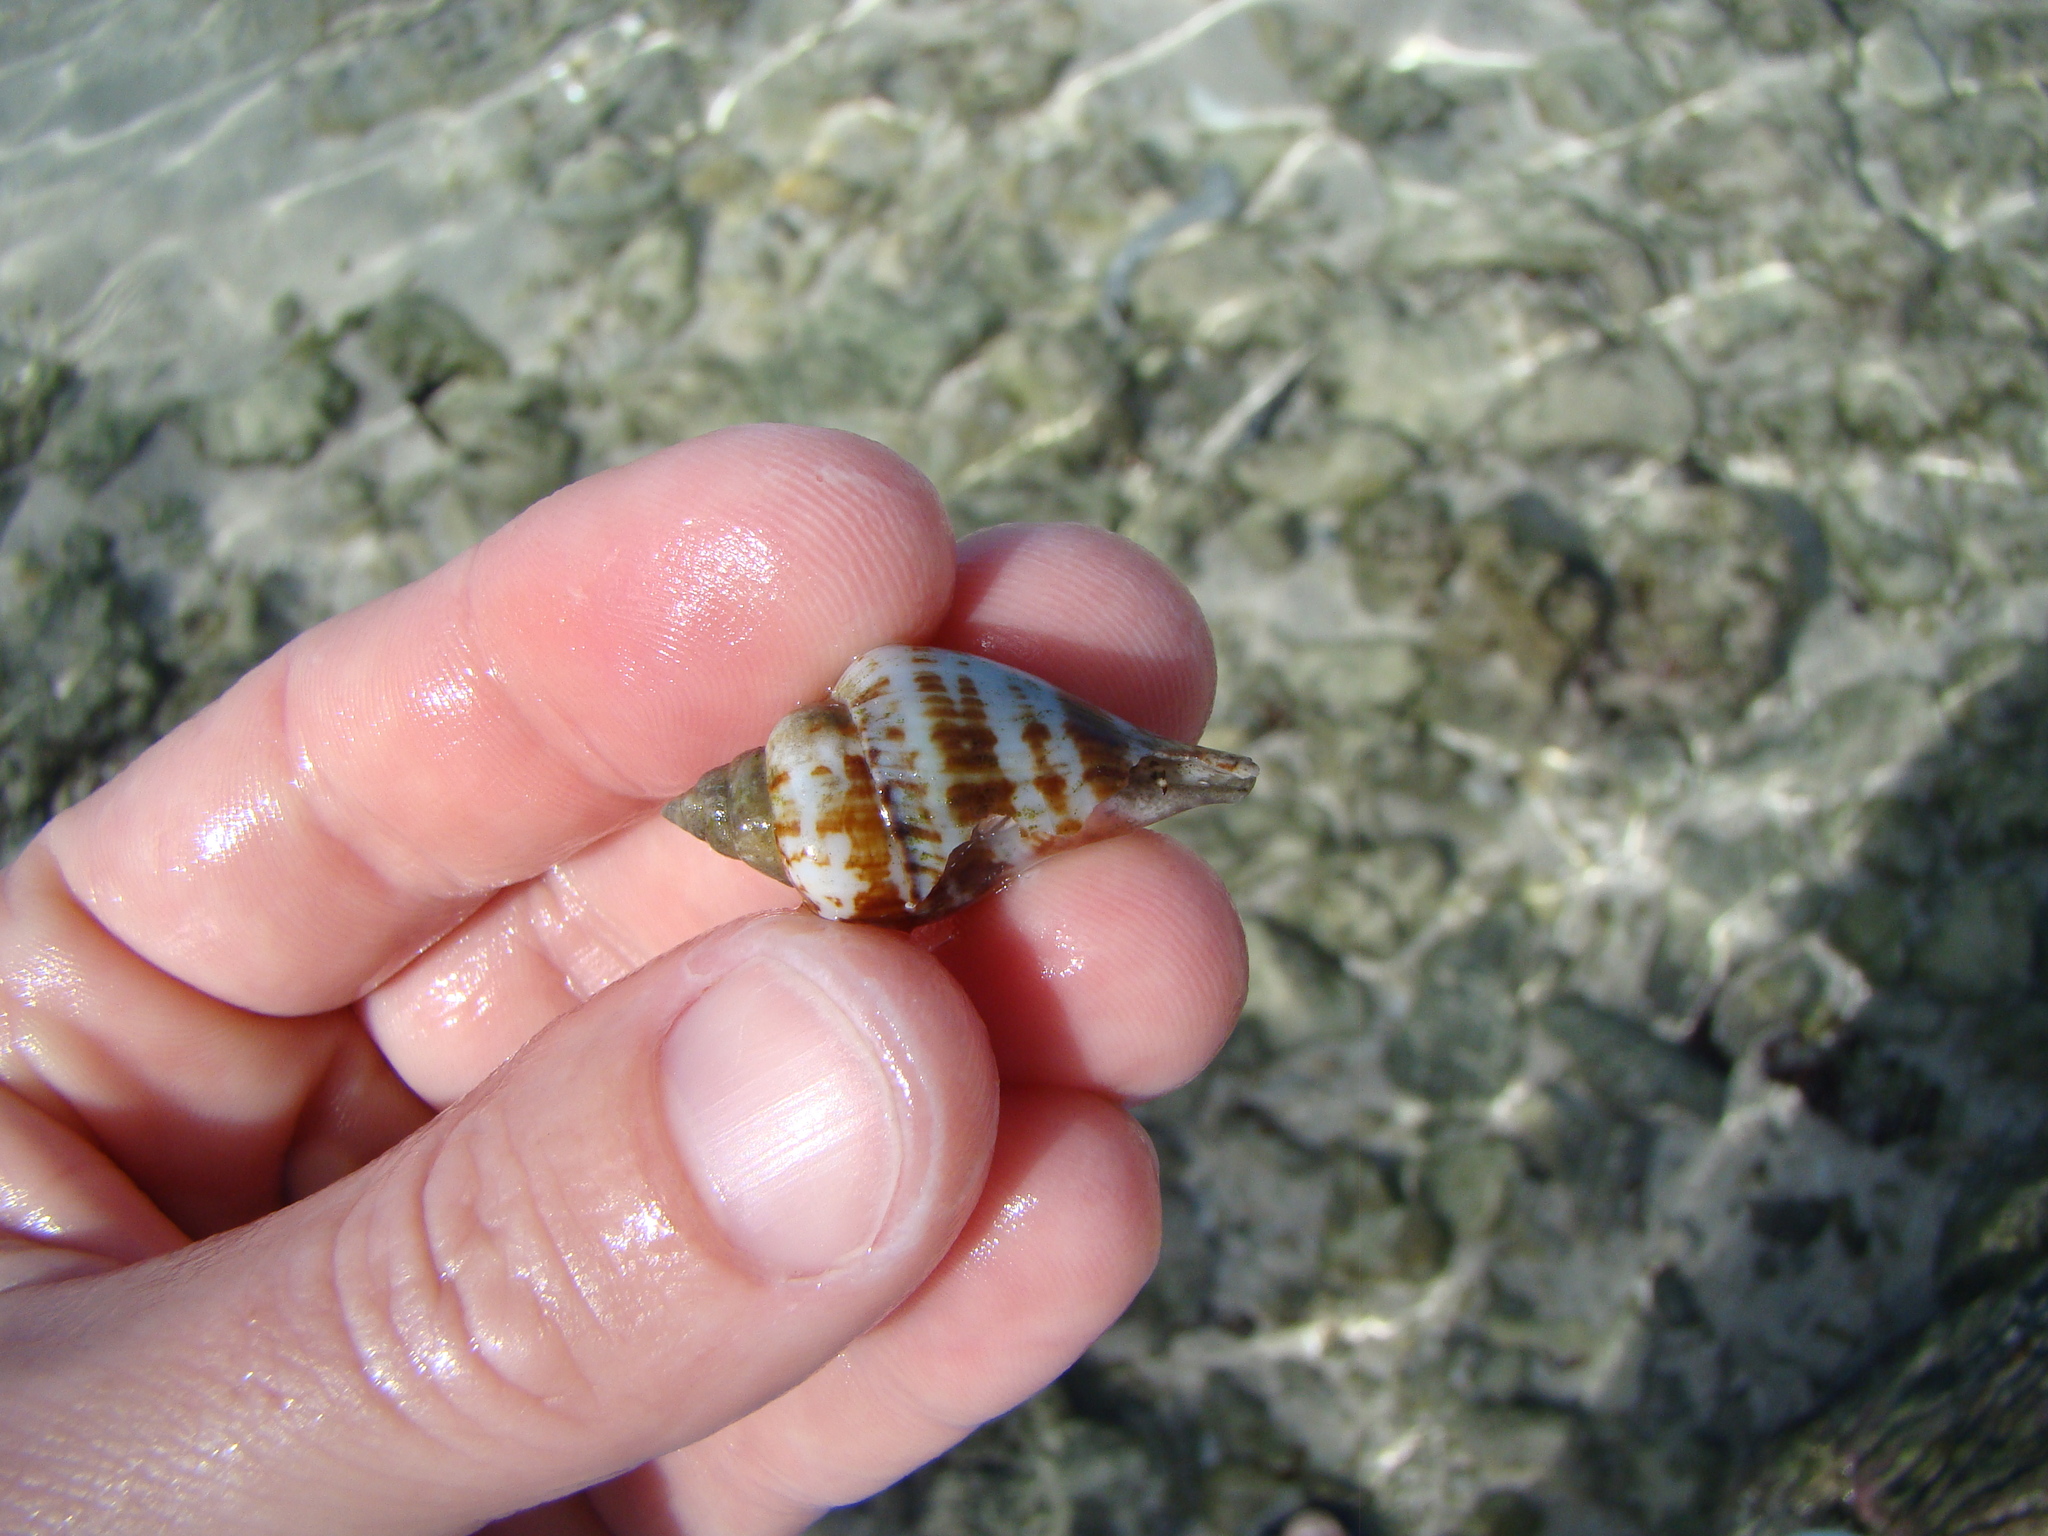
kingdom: Animalia
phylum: Mollusca
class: Gastropoda
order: Littorinimorpha
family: Strombidae
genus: Gibberulus
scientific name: Gibberulus gibberulus
